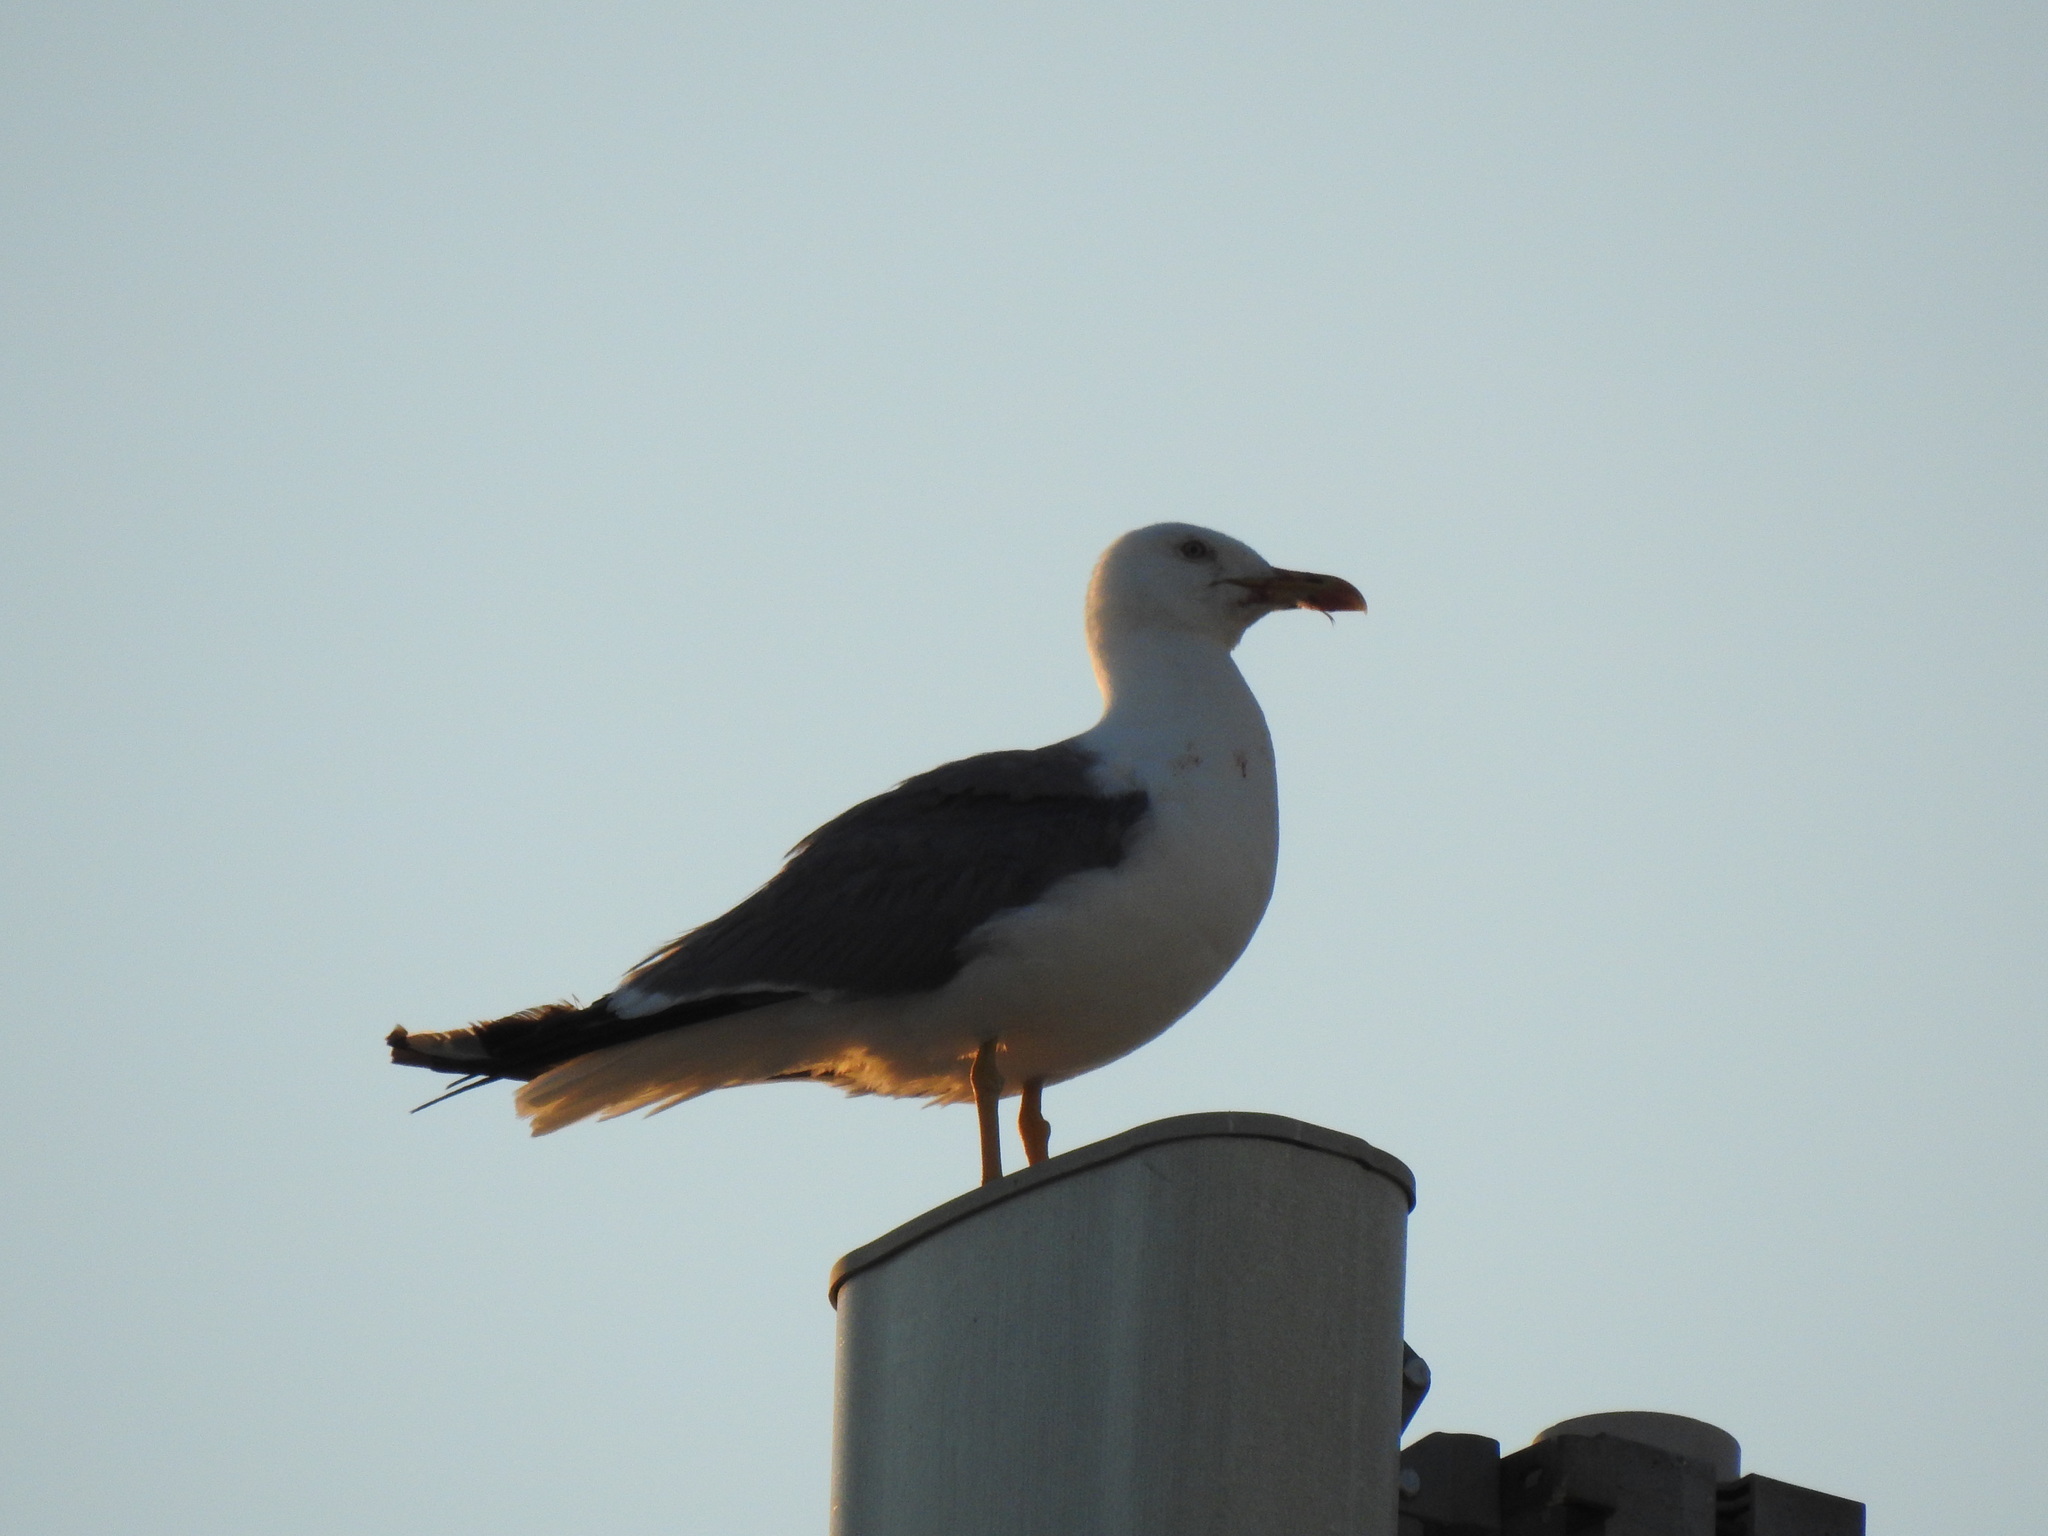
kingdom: Animalia
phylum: Chordata
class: Aves
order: Charadriiformes
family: Laridae
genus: Larus
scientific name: Larus michahellis
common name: Yellow-legged gull
